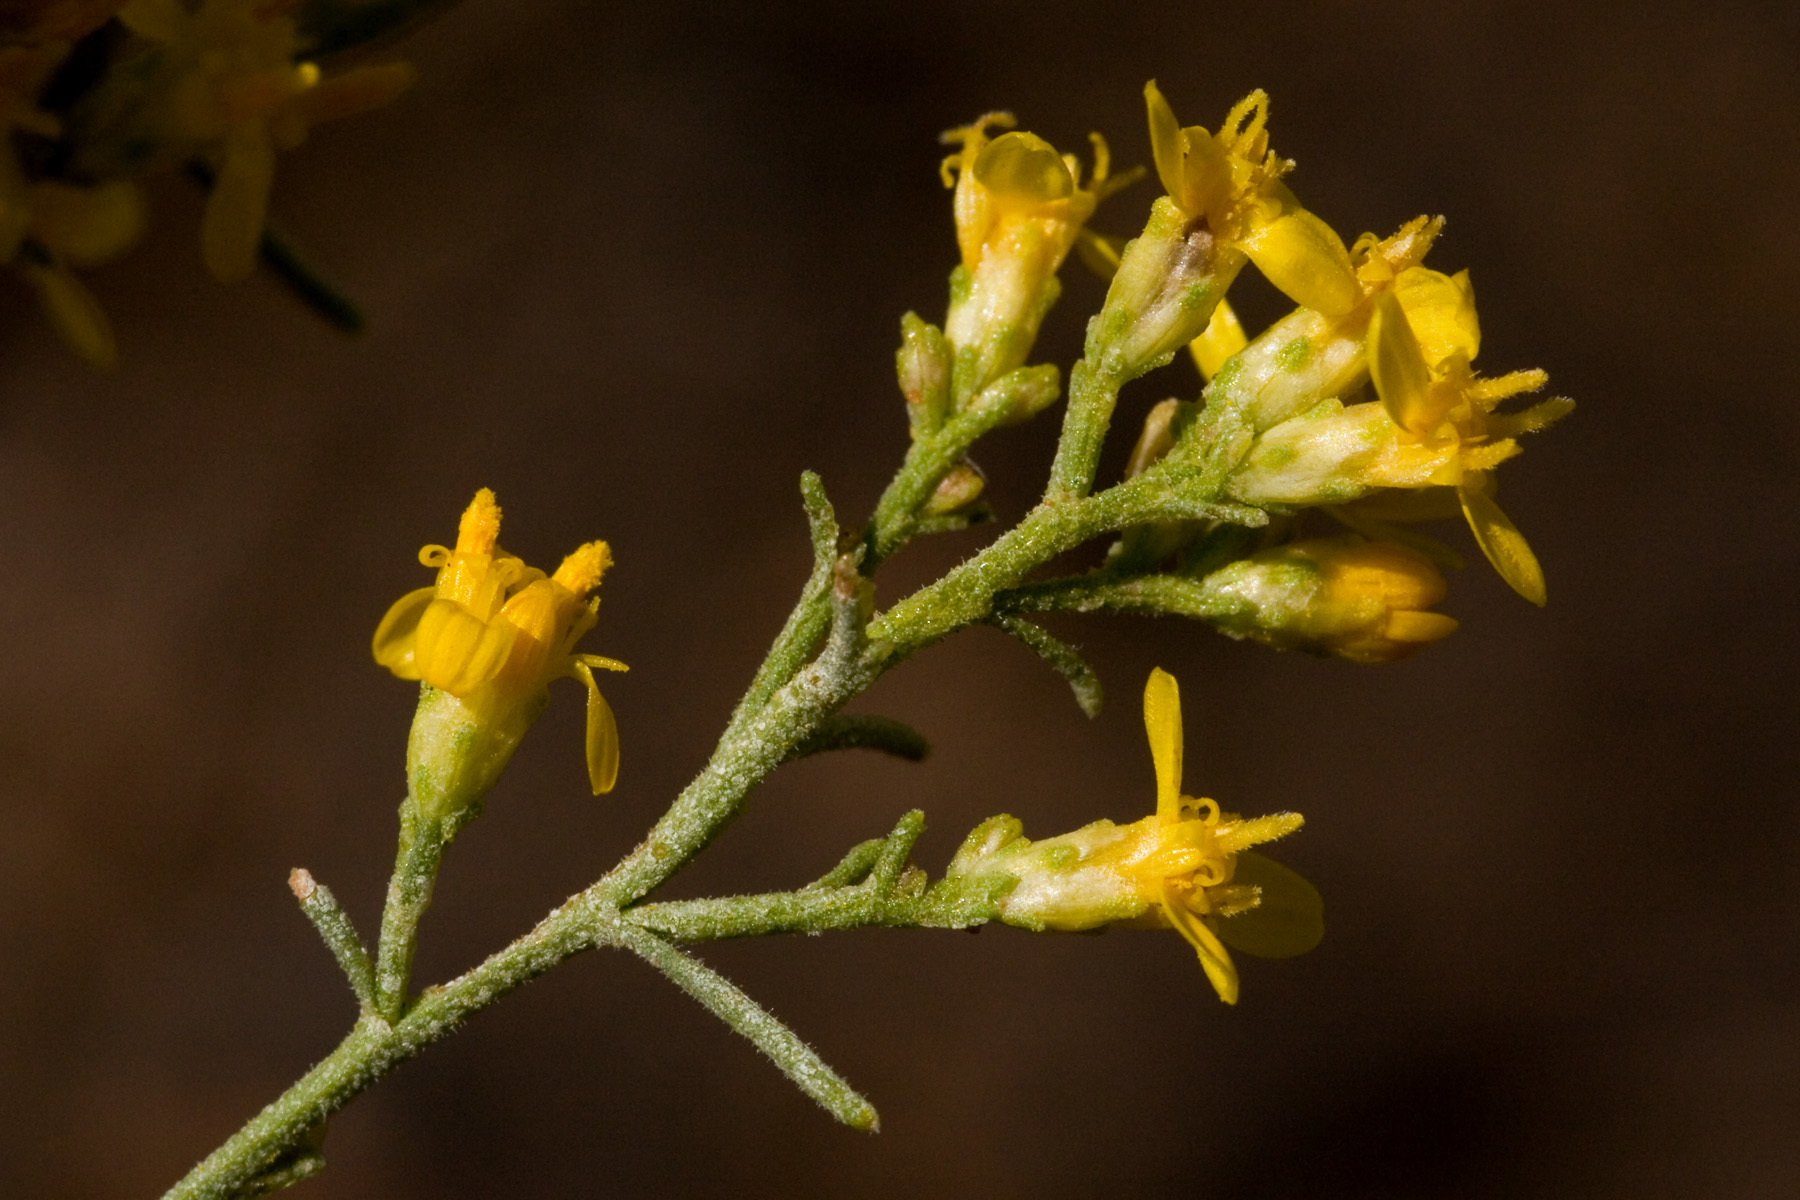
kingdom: Plantae
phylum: Tracheophyta
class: Magnoliopsida
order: Asterales
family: Asteraceae
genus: Gutierrezia
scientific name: Gutierrezia sarothrae
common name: Broom snakeweed
